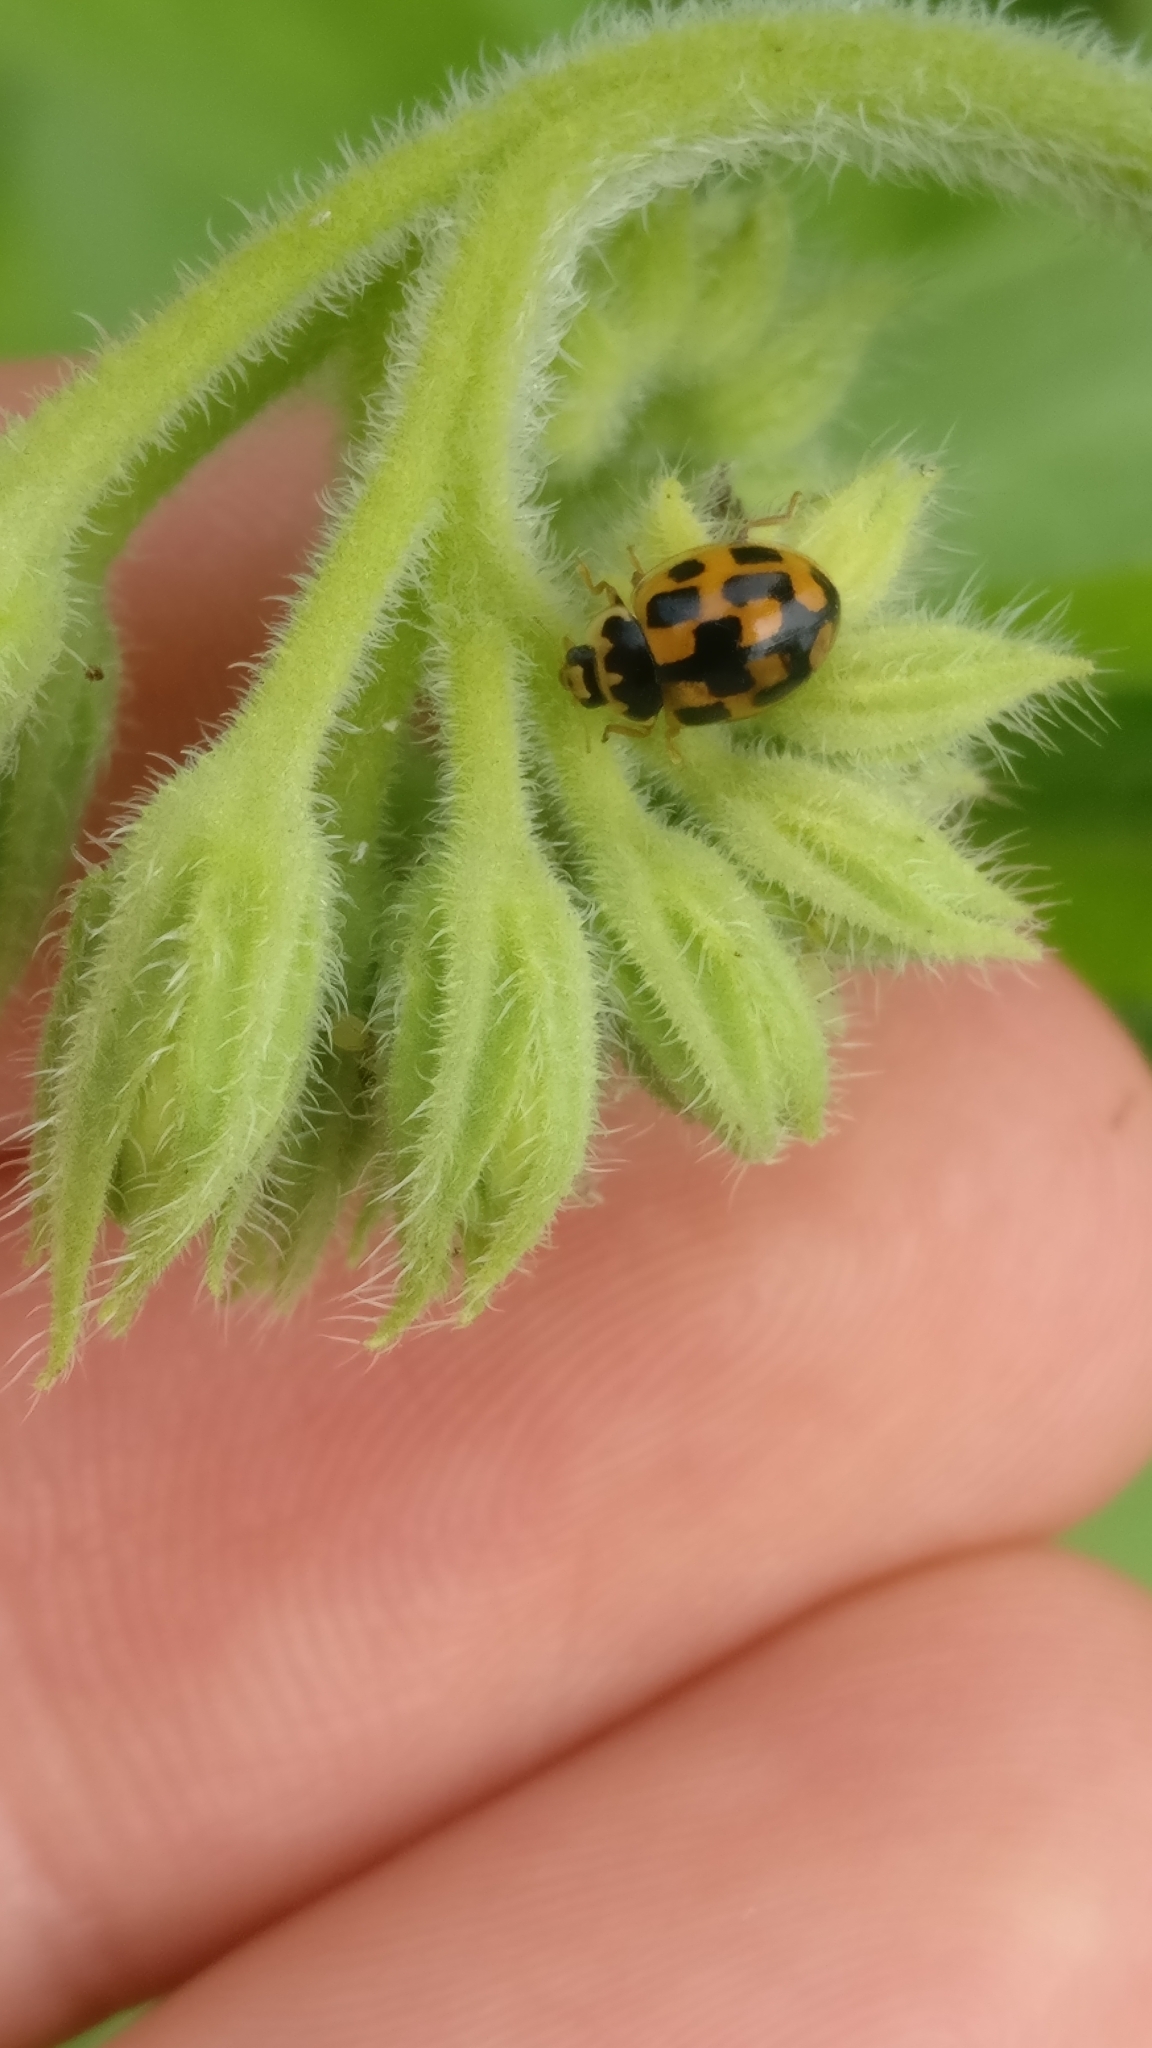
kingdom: Animalia
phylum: Arthropoda
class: Insecta
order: Coleoptera
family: Coccinellidae
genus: Propylaea
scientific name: Propylaea quatuordecimpunctata
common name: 14-spotted ladybird beetle
